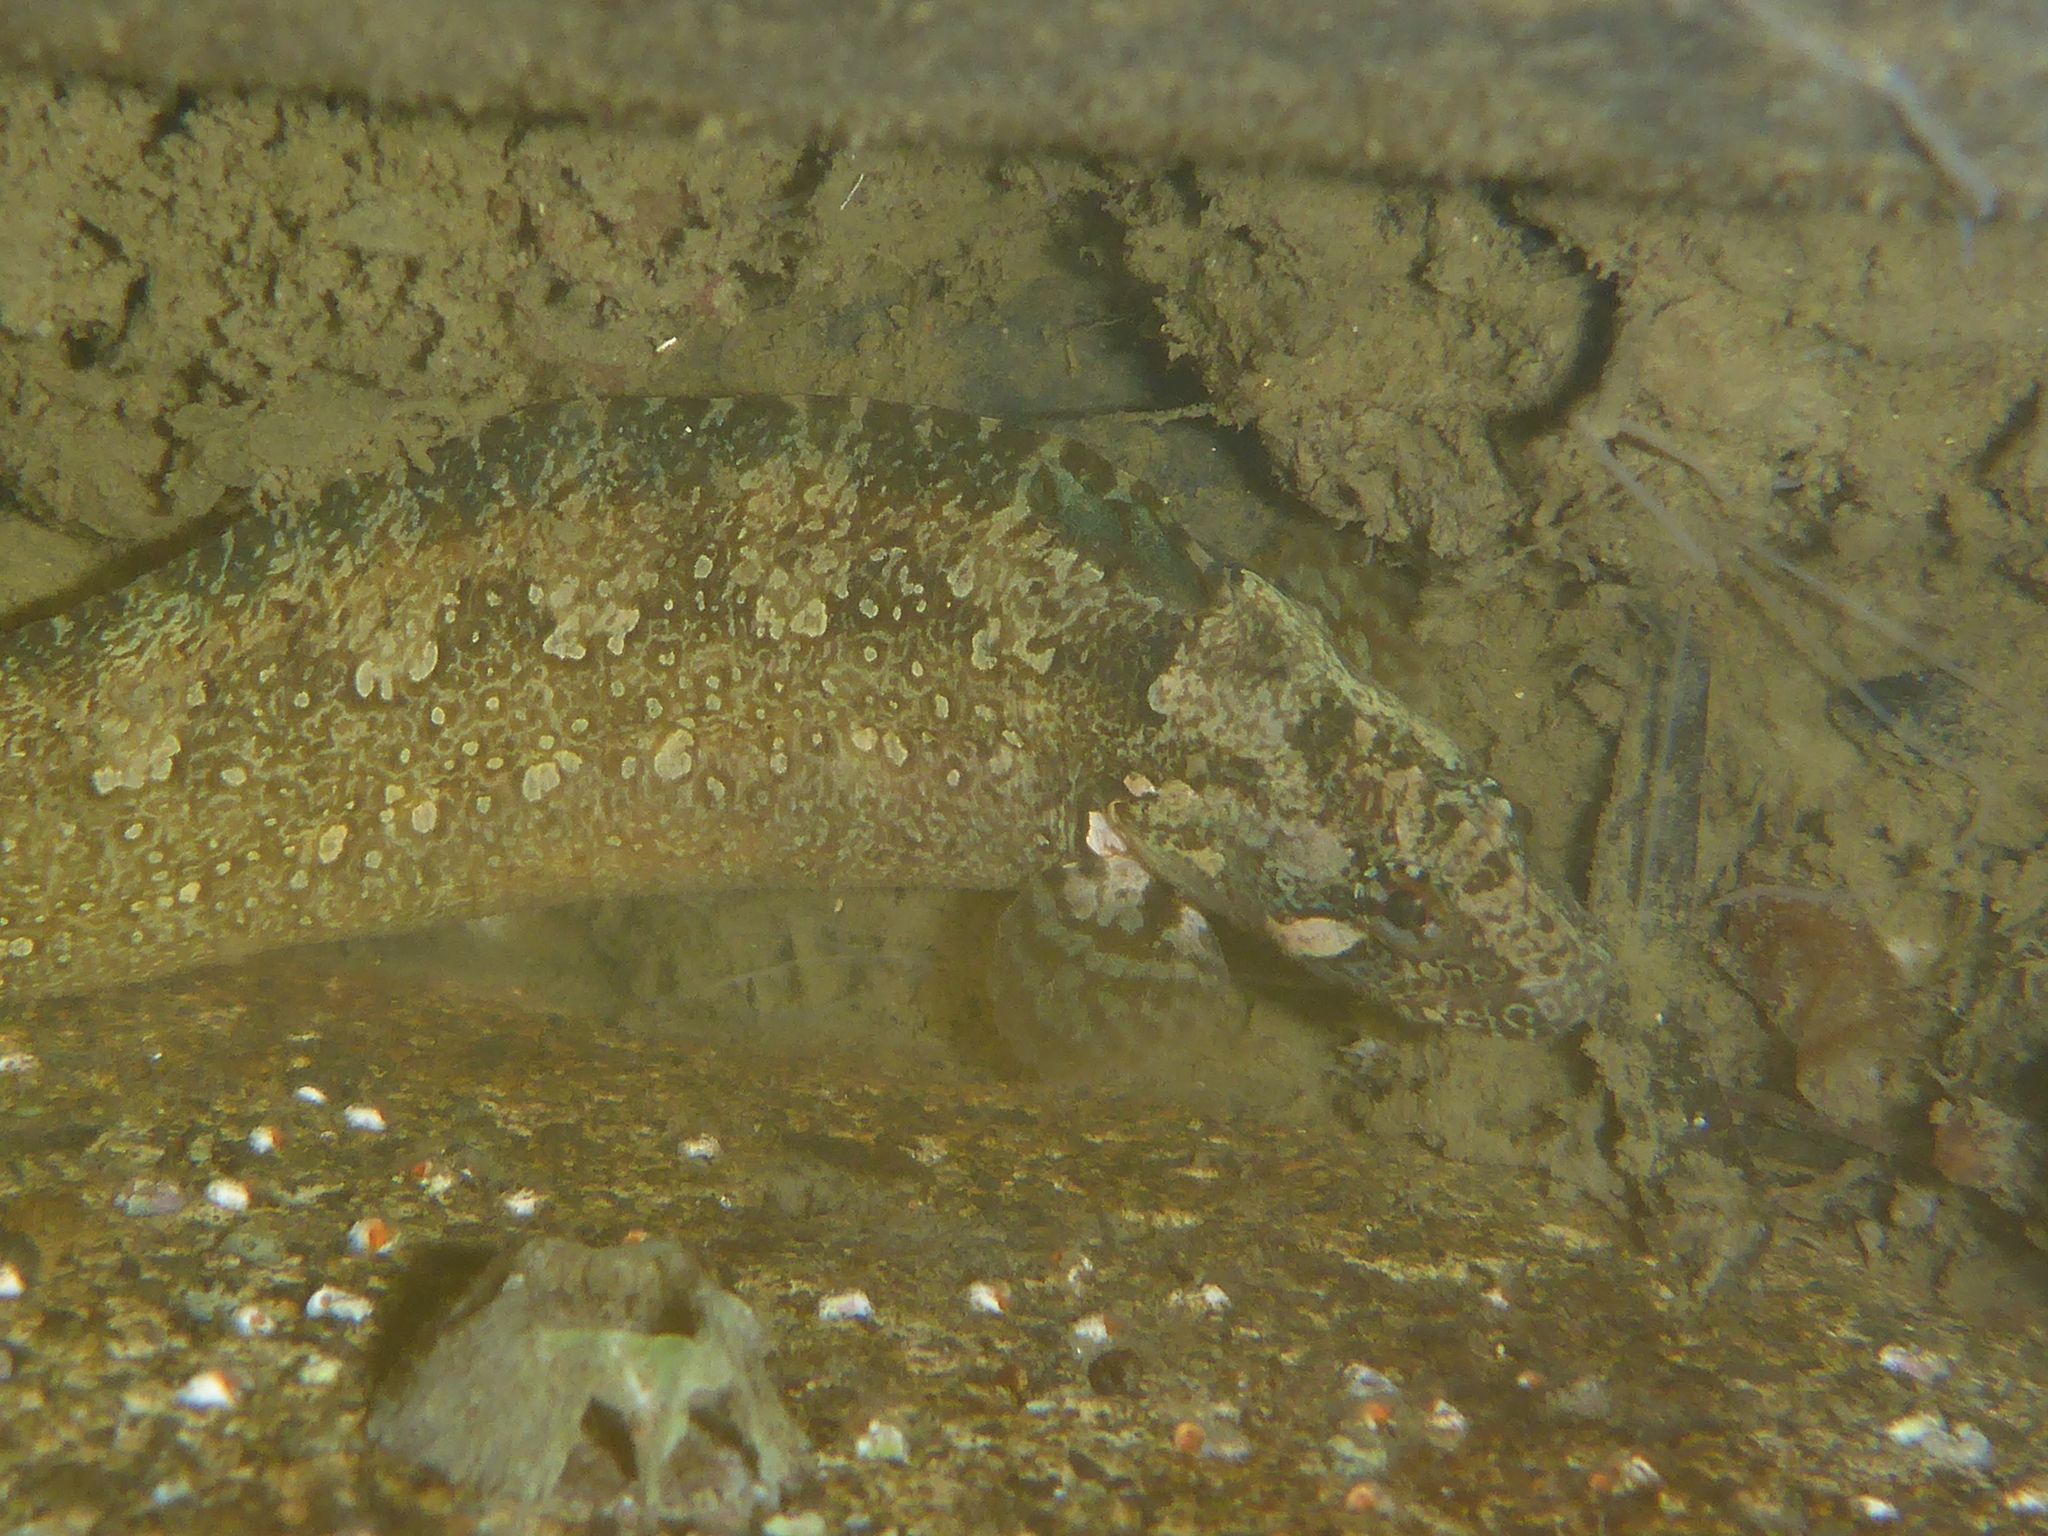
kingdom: Animalia
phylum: Chordata
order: Perciformes
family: Stichaeidae
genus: Anoplarchus
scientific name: Anoplarchus purpurescens
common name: High cockscomb
